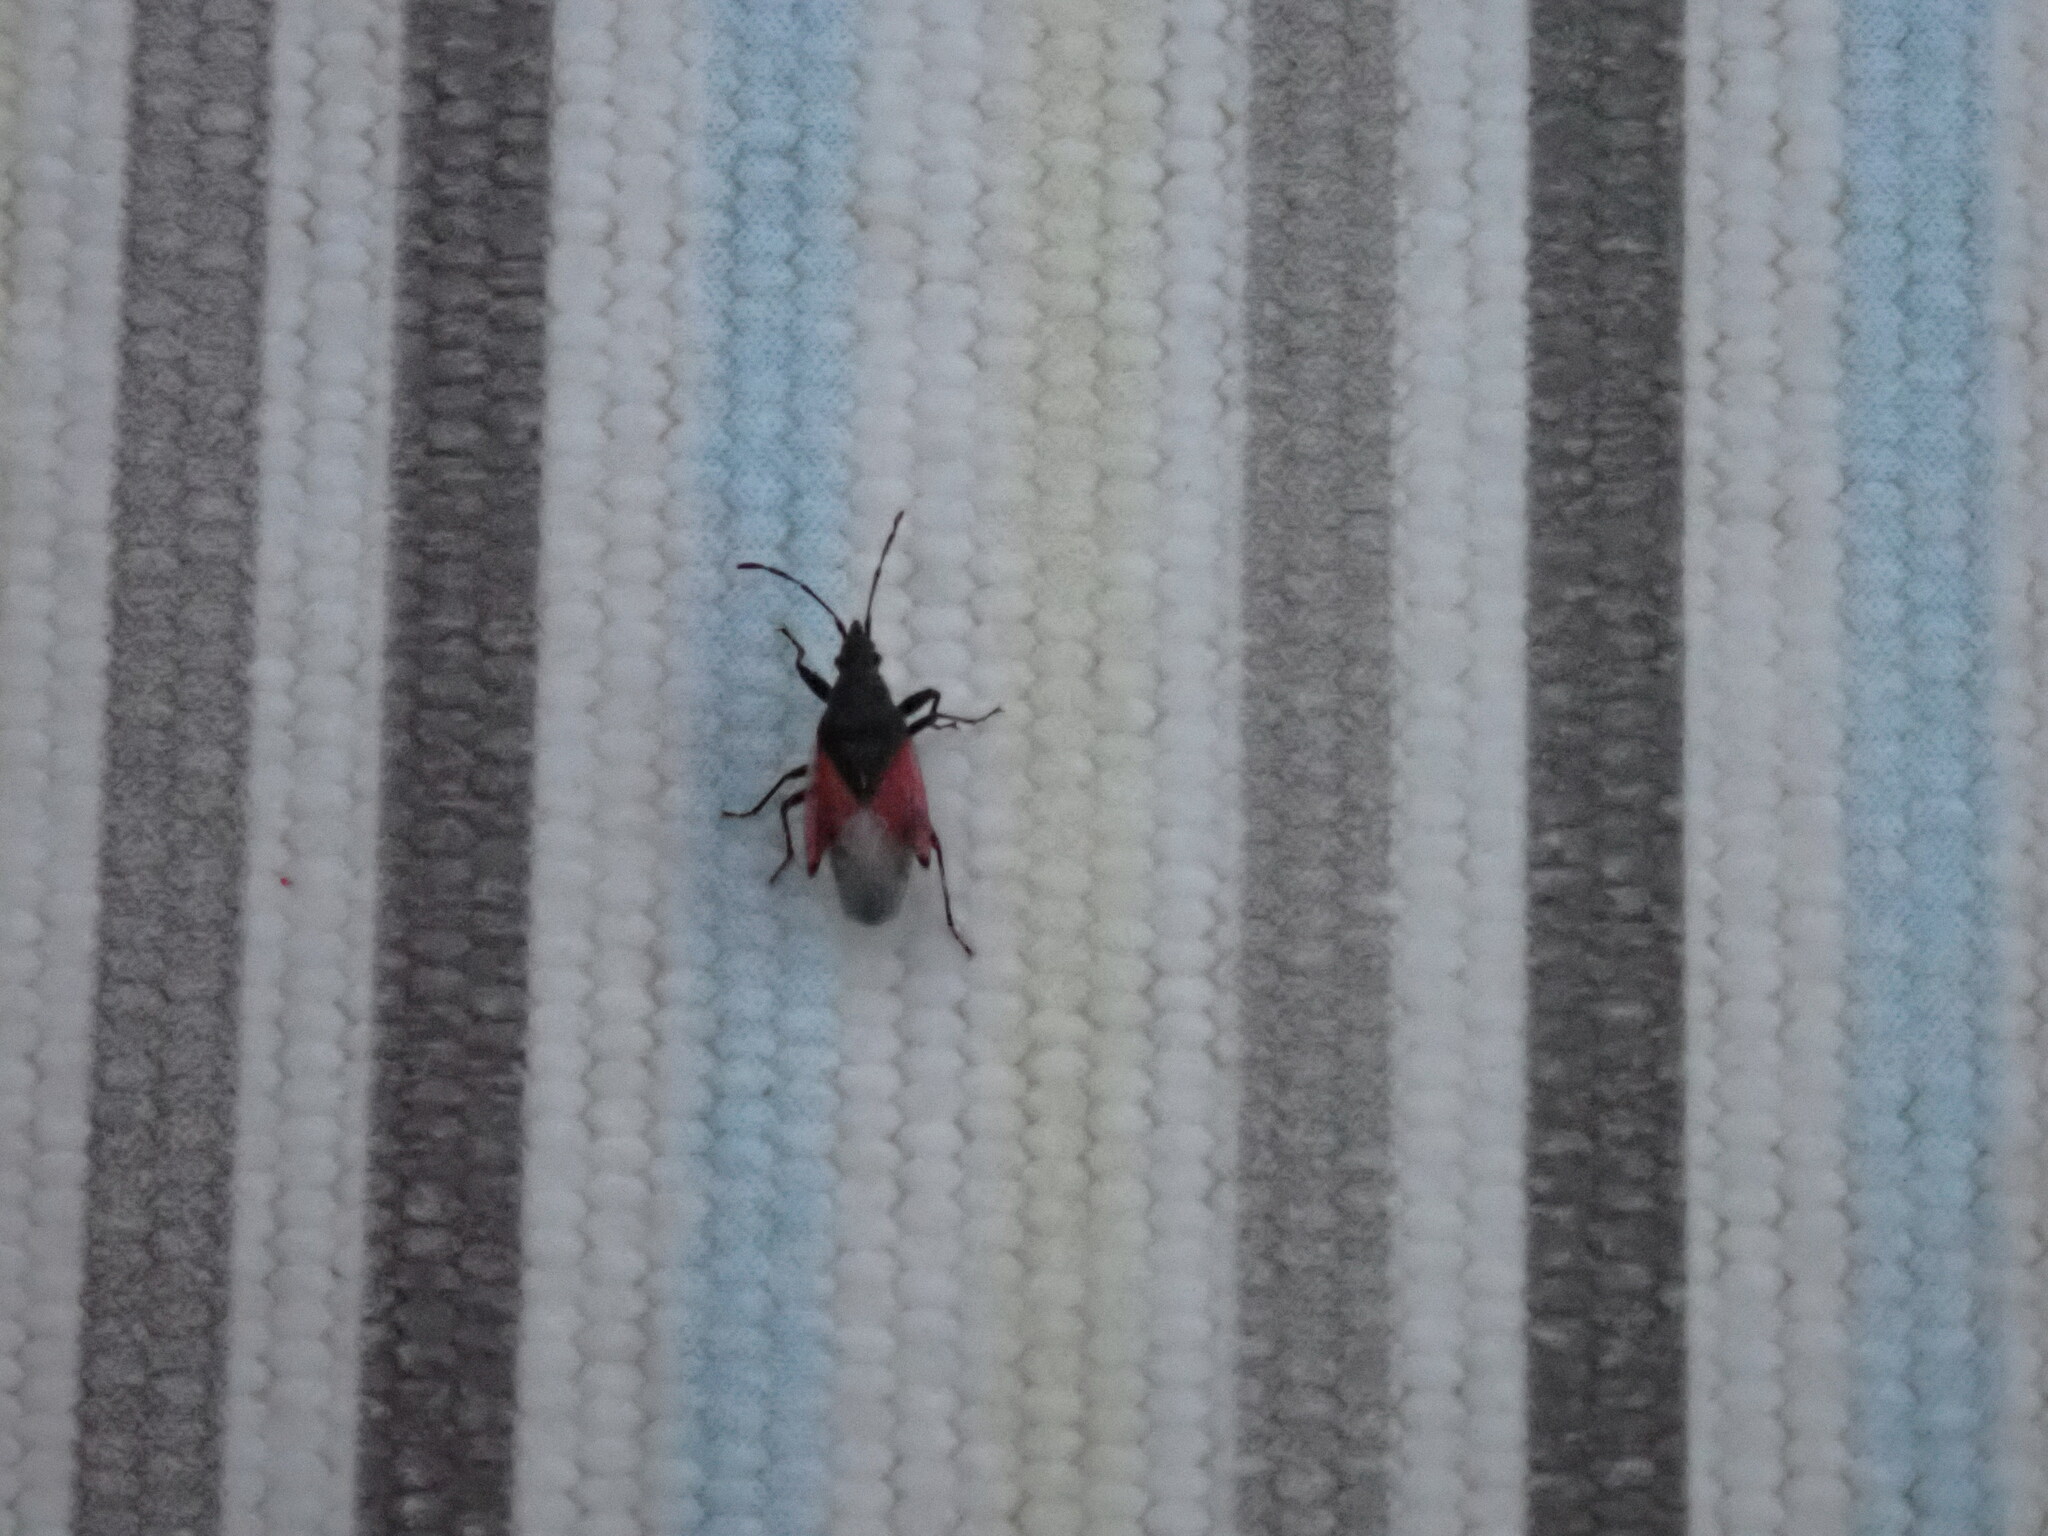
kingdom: Animalia
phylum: Arthropoda
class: Insecta
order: Hemiptera
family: Oxycarenidae
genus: Oxycarenus
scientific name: Oxycarenus lavaterae
